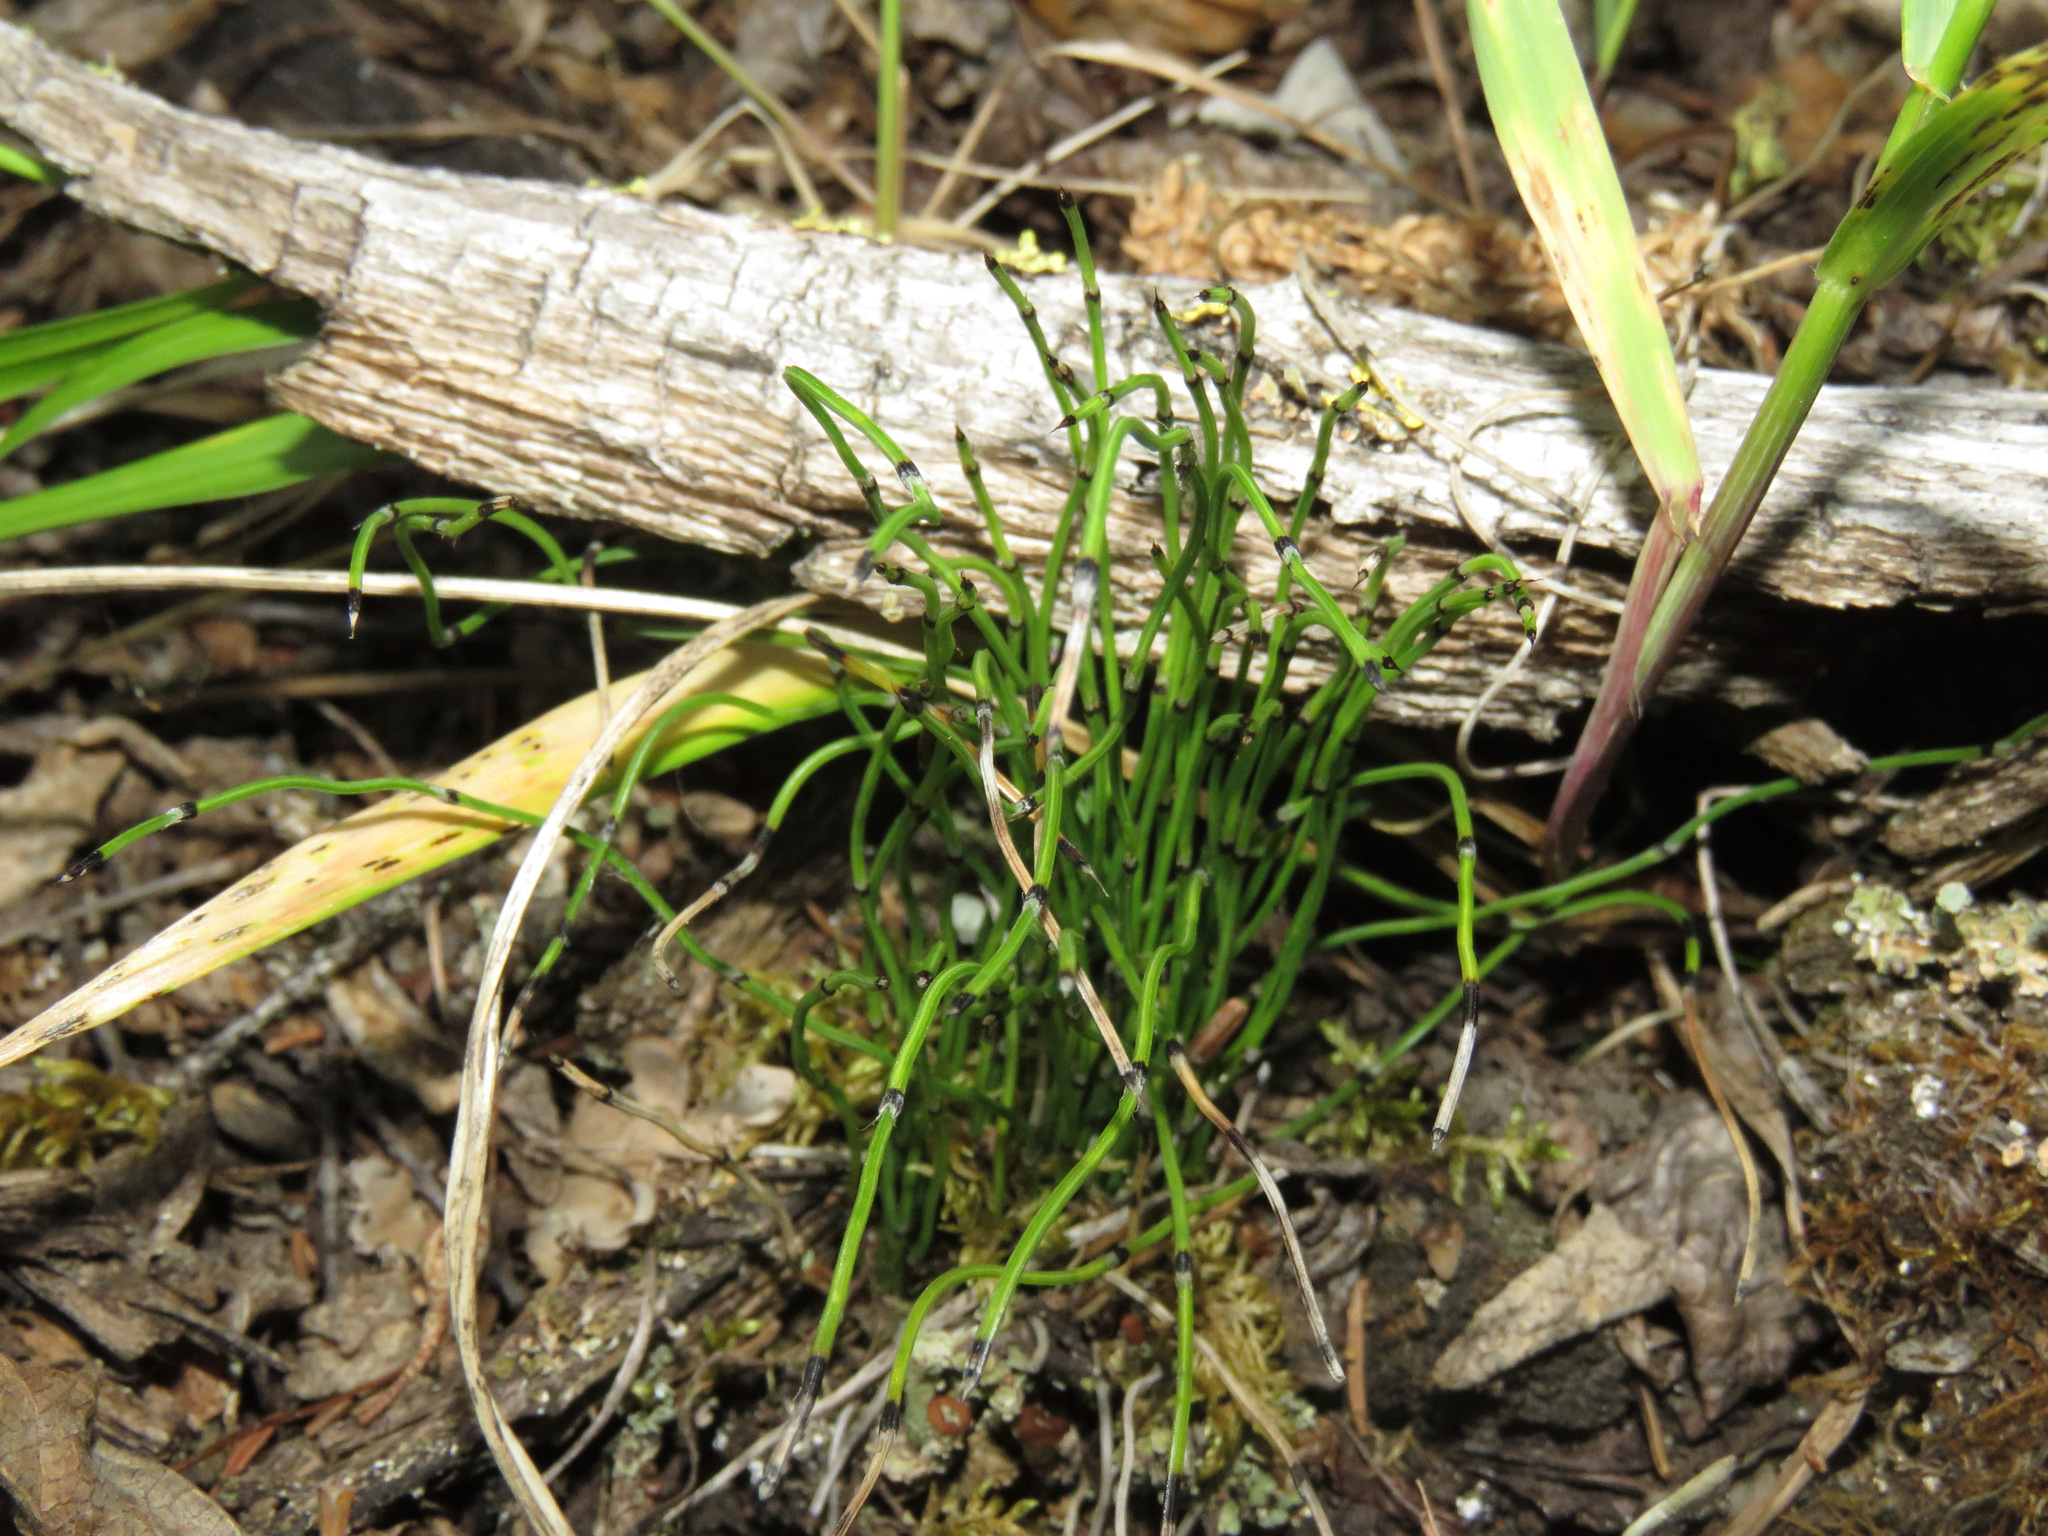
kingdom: Plantae
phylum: Tracheophyta
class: Polypodiopsida
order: Equisetales
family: Equisetaceae
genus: Equisetum
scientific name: Equisetum scirpoides
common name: Delicate horsetail
